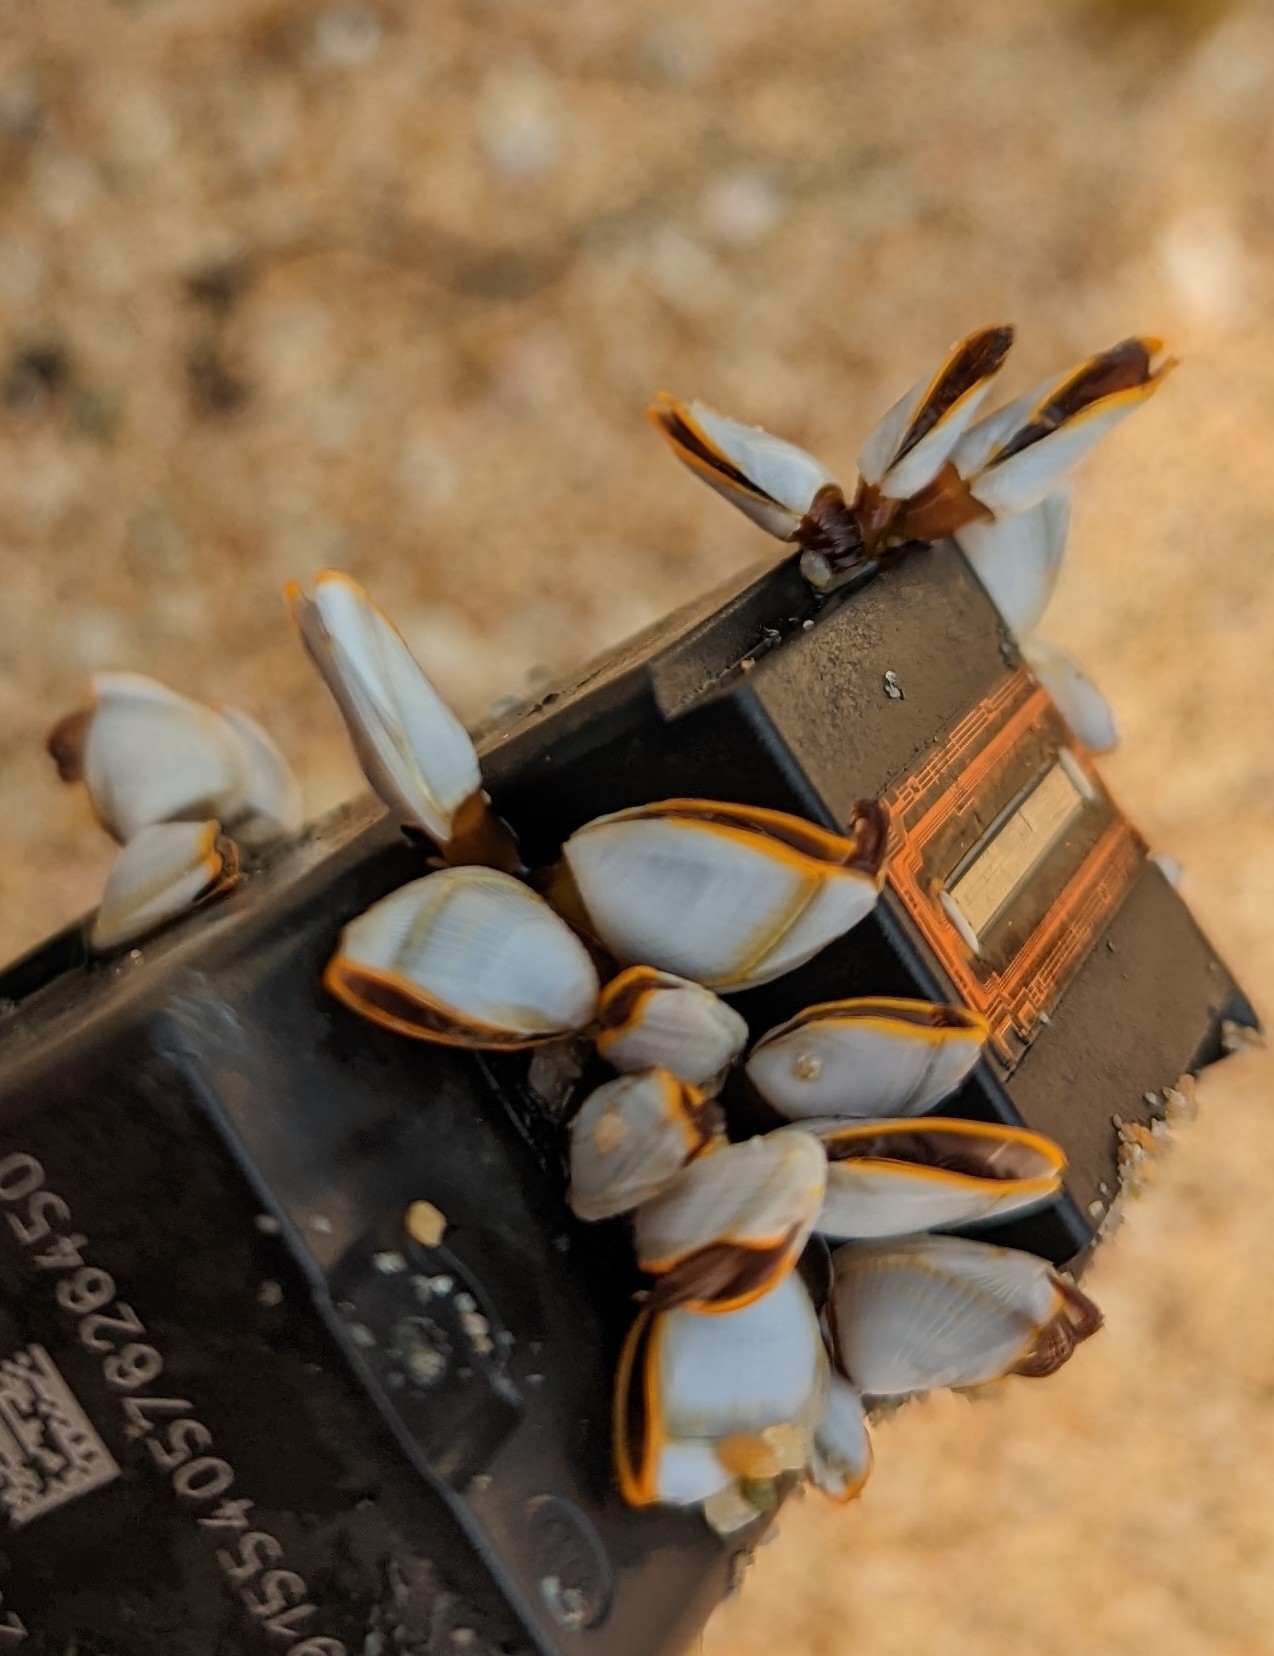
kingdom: Animalia
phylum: Arthropoda
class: Maxillopoda
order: Pedunculata
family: Lepadidae
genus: Lepas
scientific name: Lepas anserifera
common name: Goose barnacle
